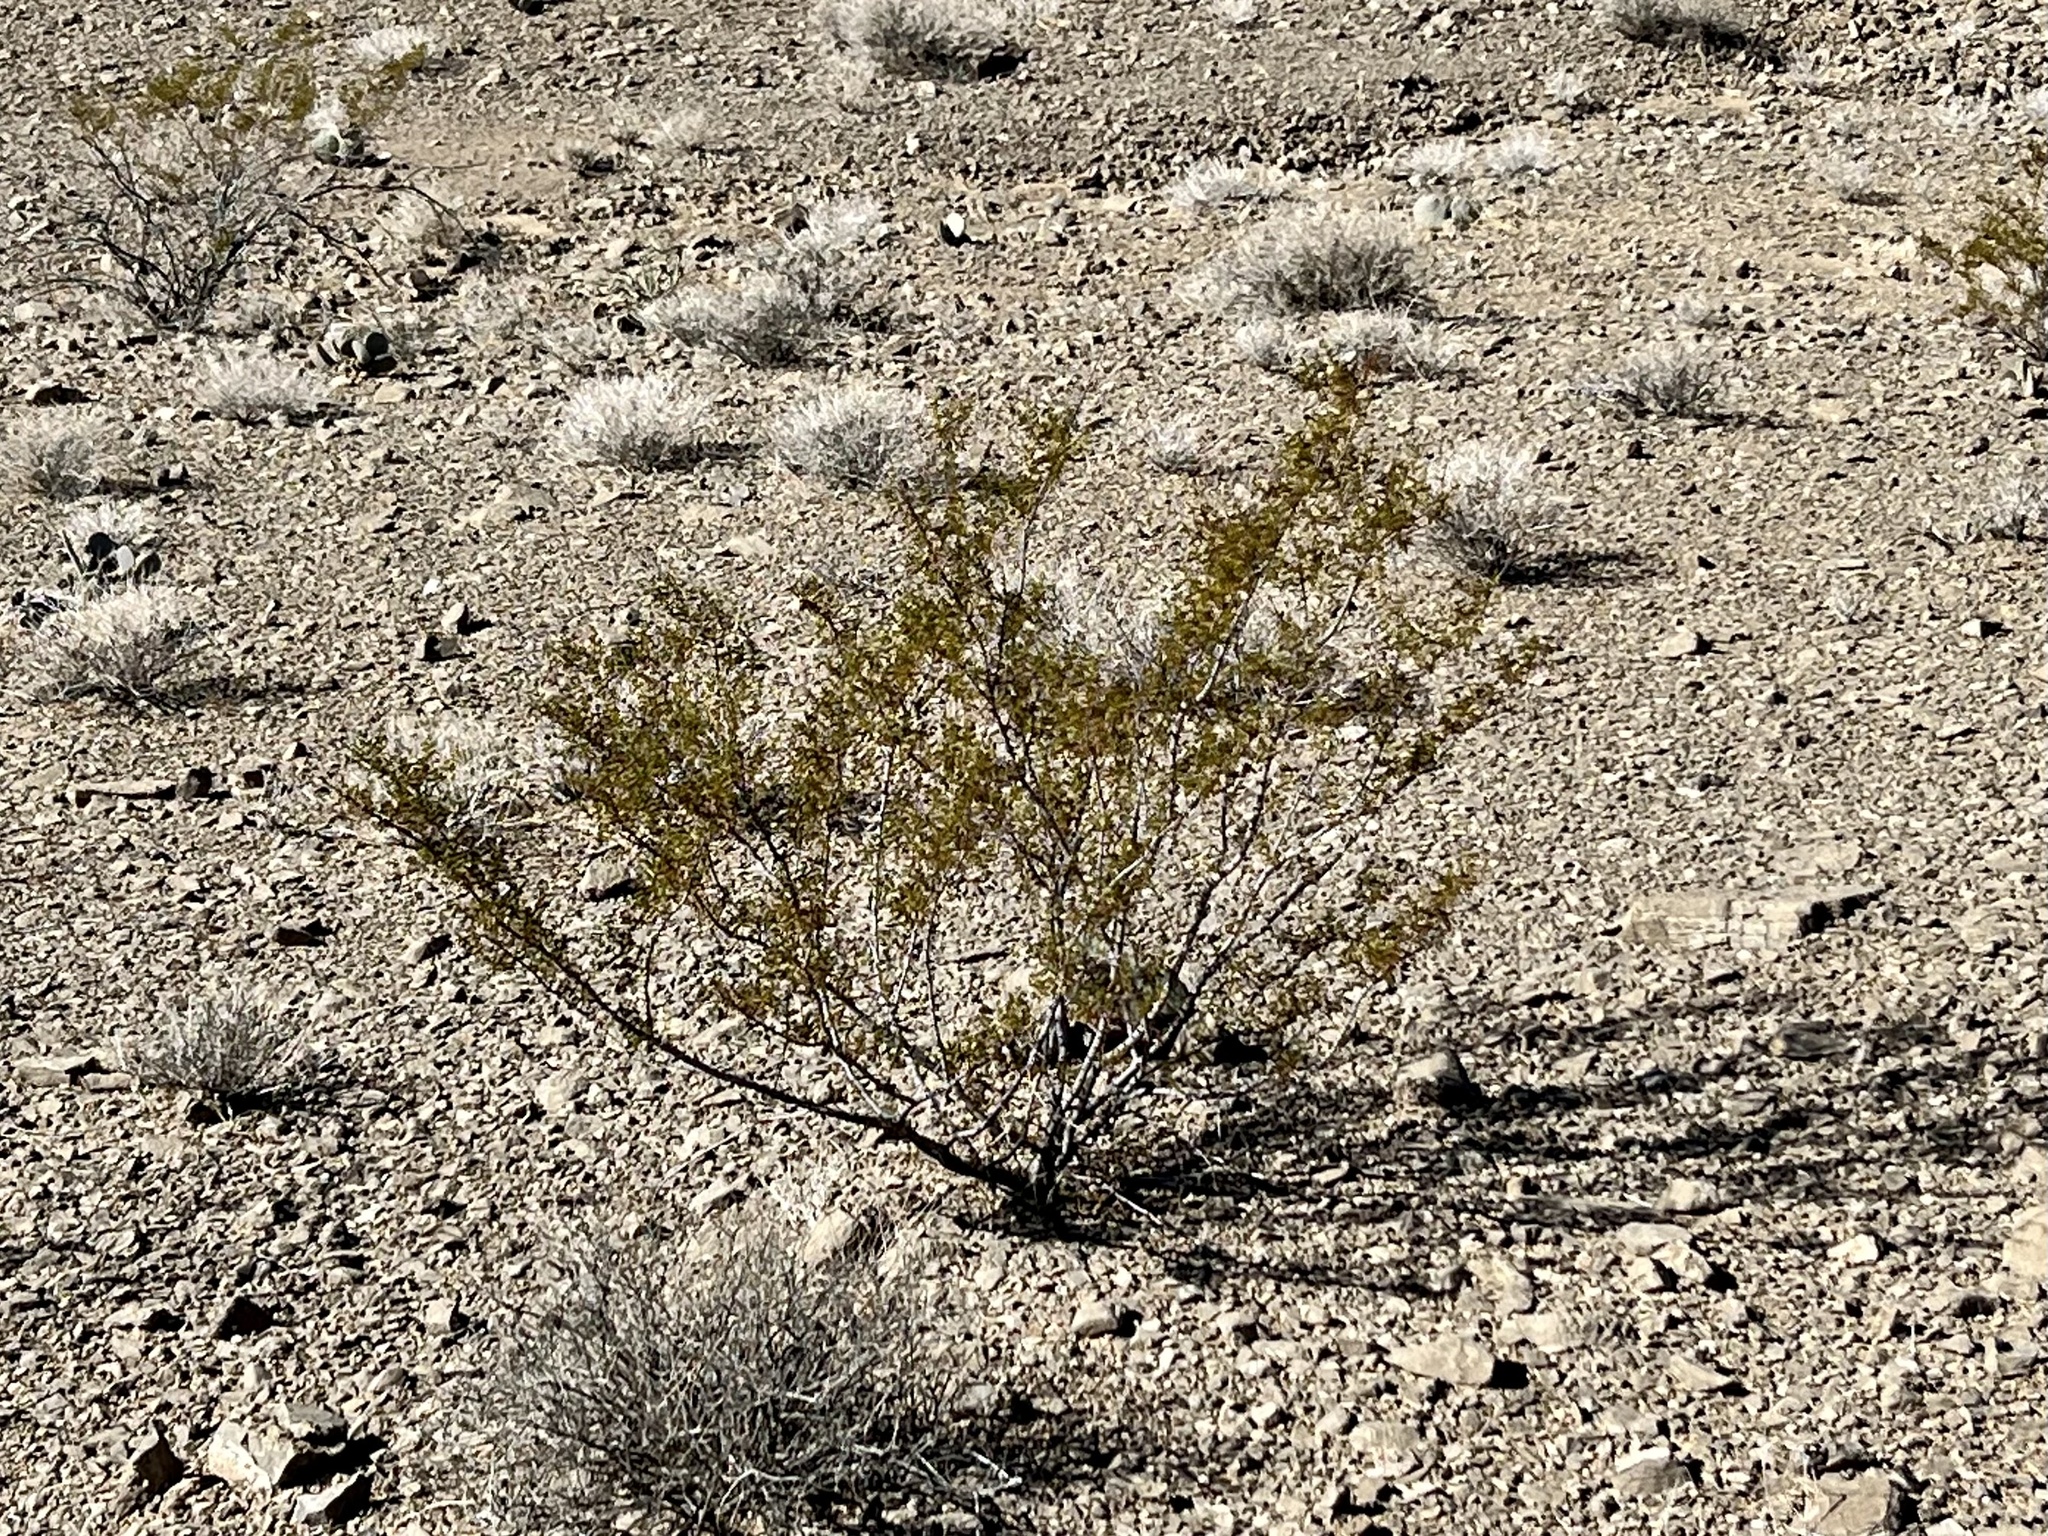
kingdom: Plantae
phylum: Tracheophyta
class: Magnoliopsida
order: Zygophyllales
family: Zygophyllaceae
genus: Larrea
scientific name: Larrea tridentata
